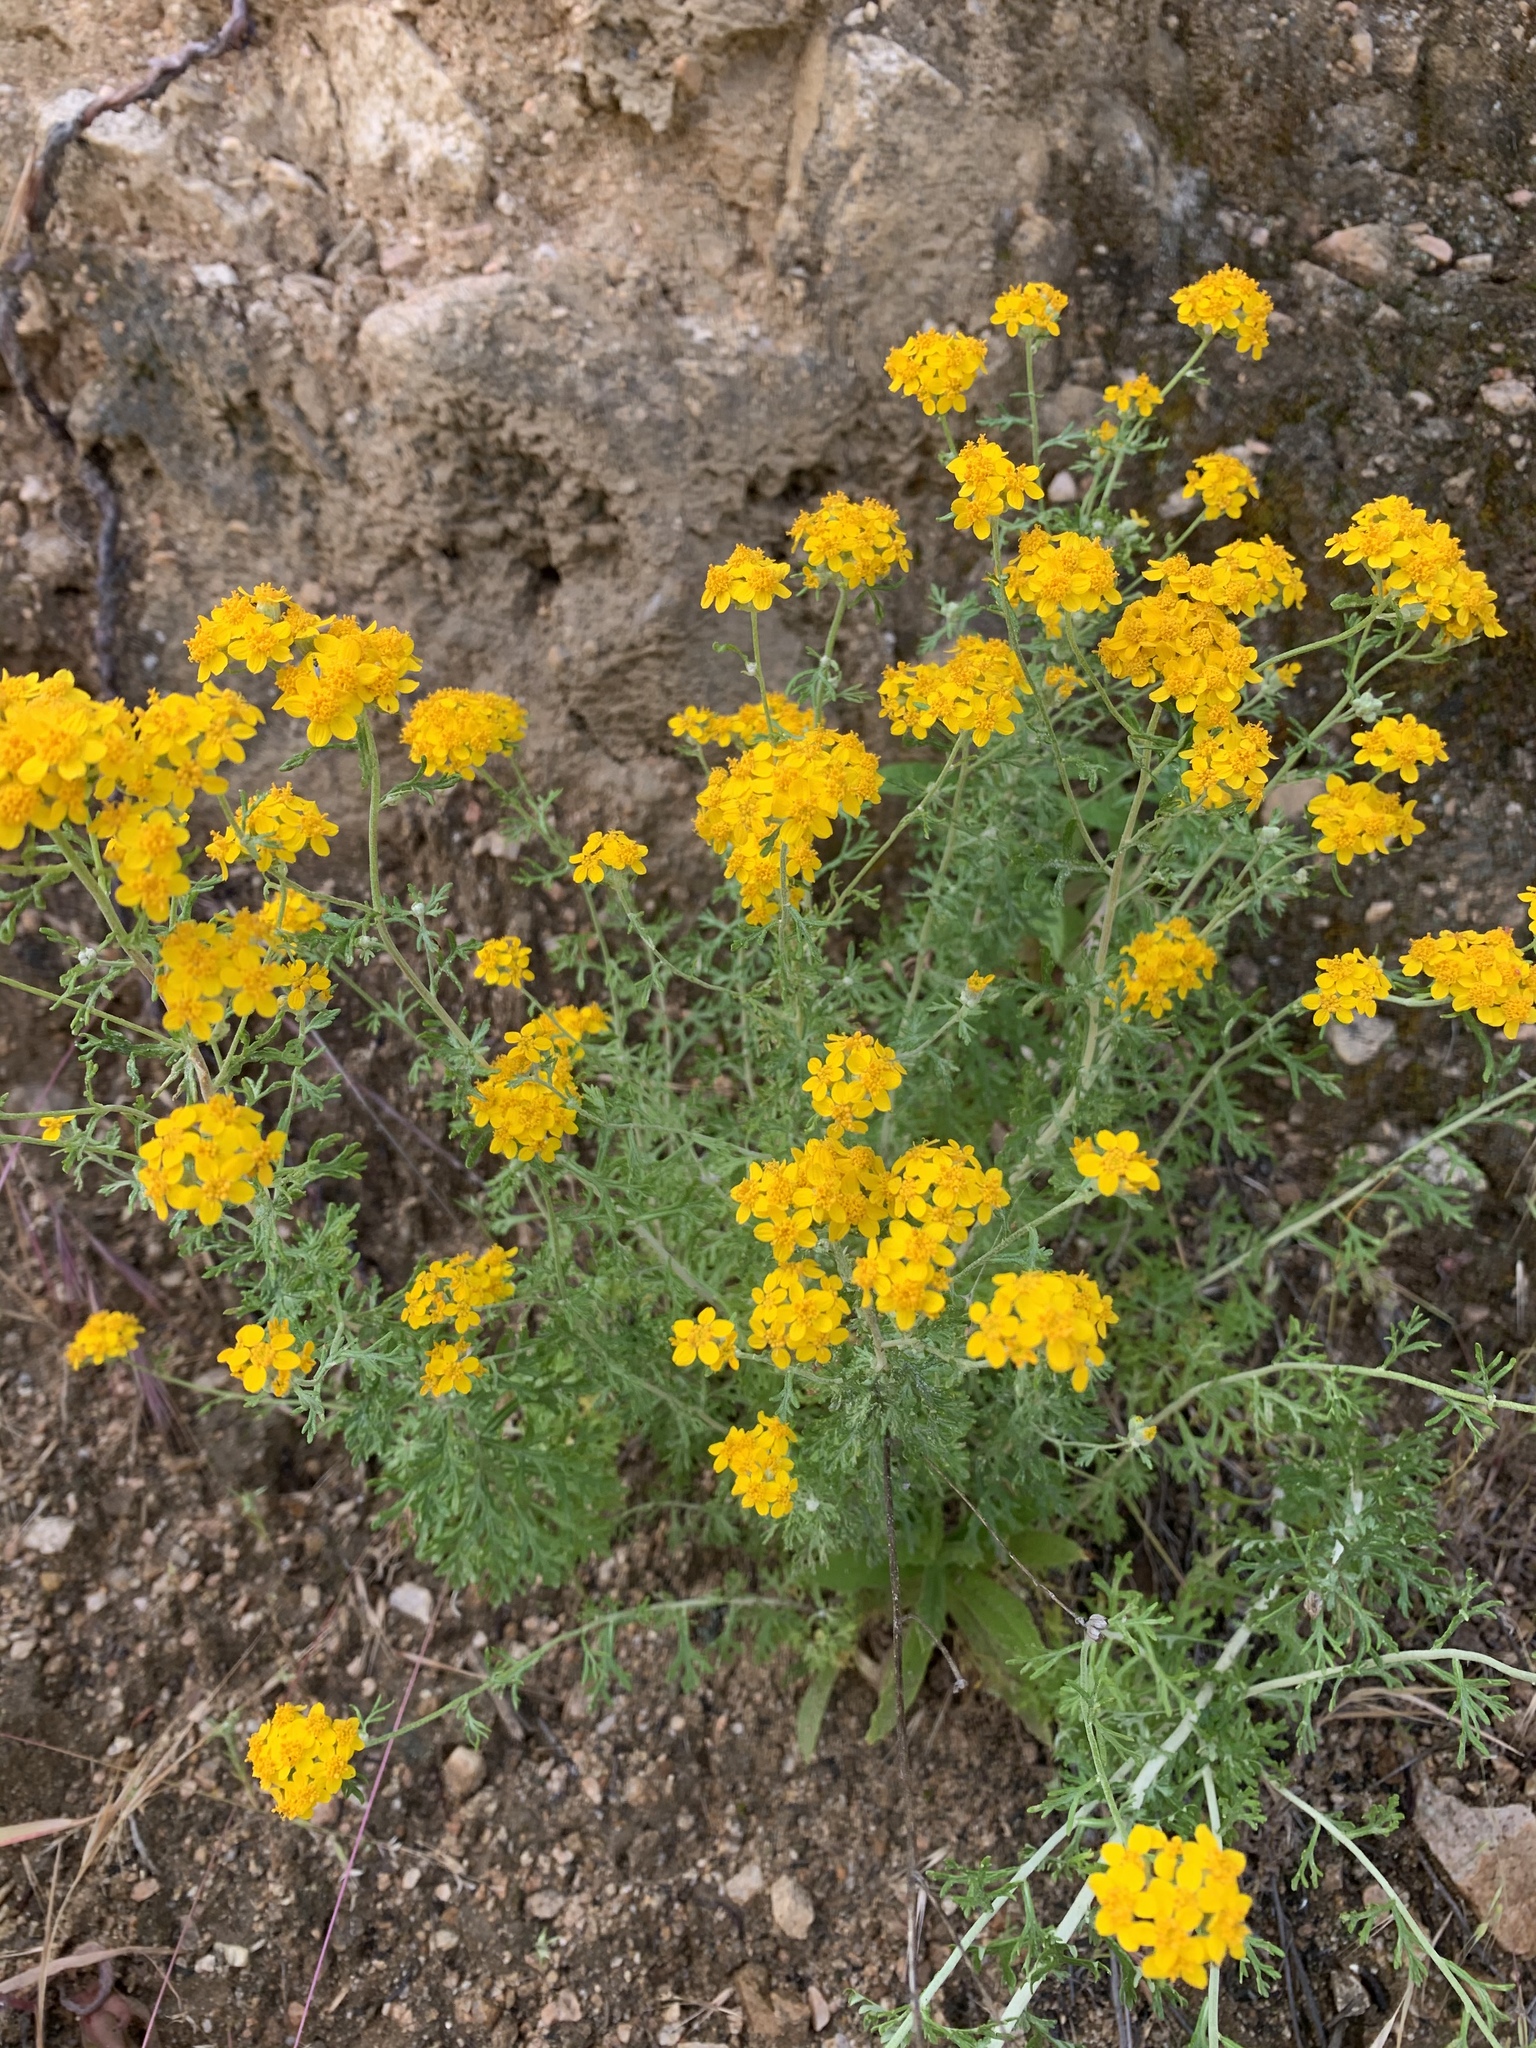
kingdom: Plantae
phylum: Tracheophyta
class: Magnoliopsida
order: Asterales
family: Asteraceae
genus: Eriophyllum
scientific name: Eriophyllum confertiflorum
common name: Golden-yarrow
